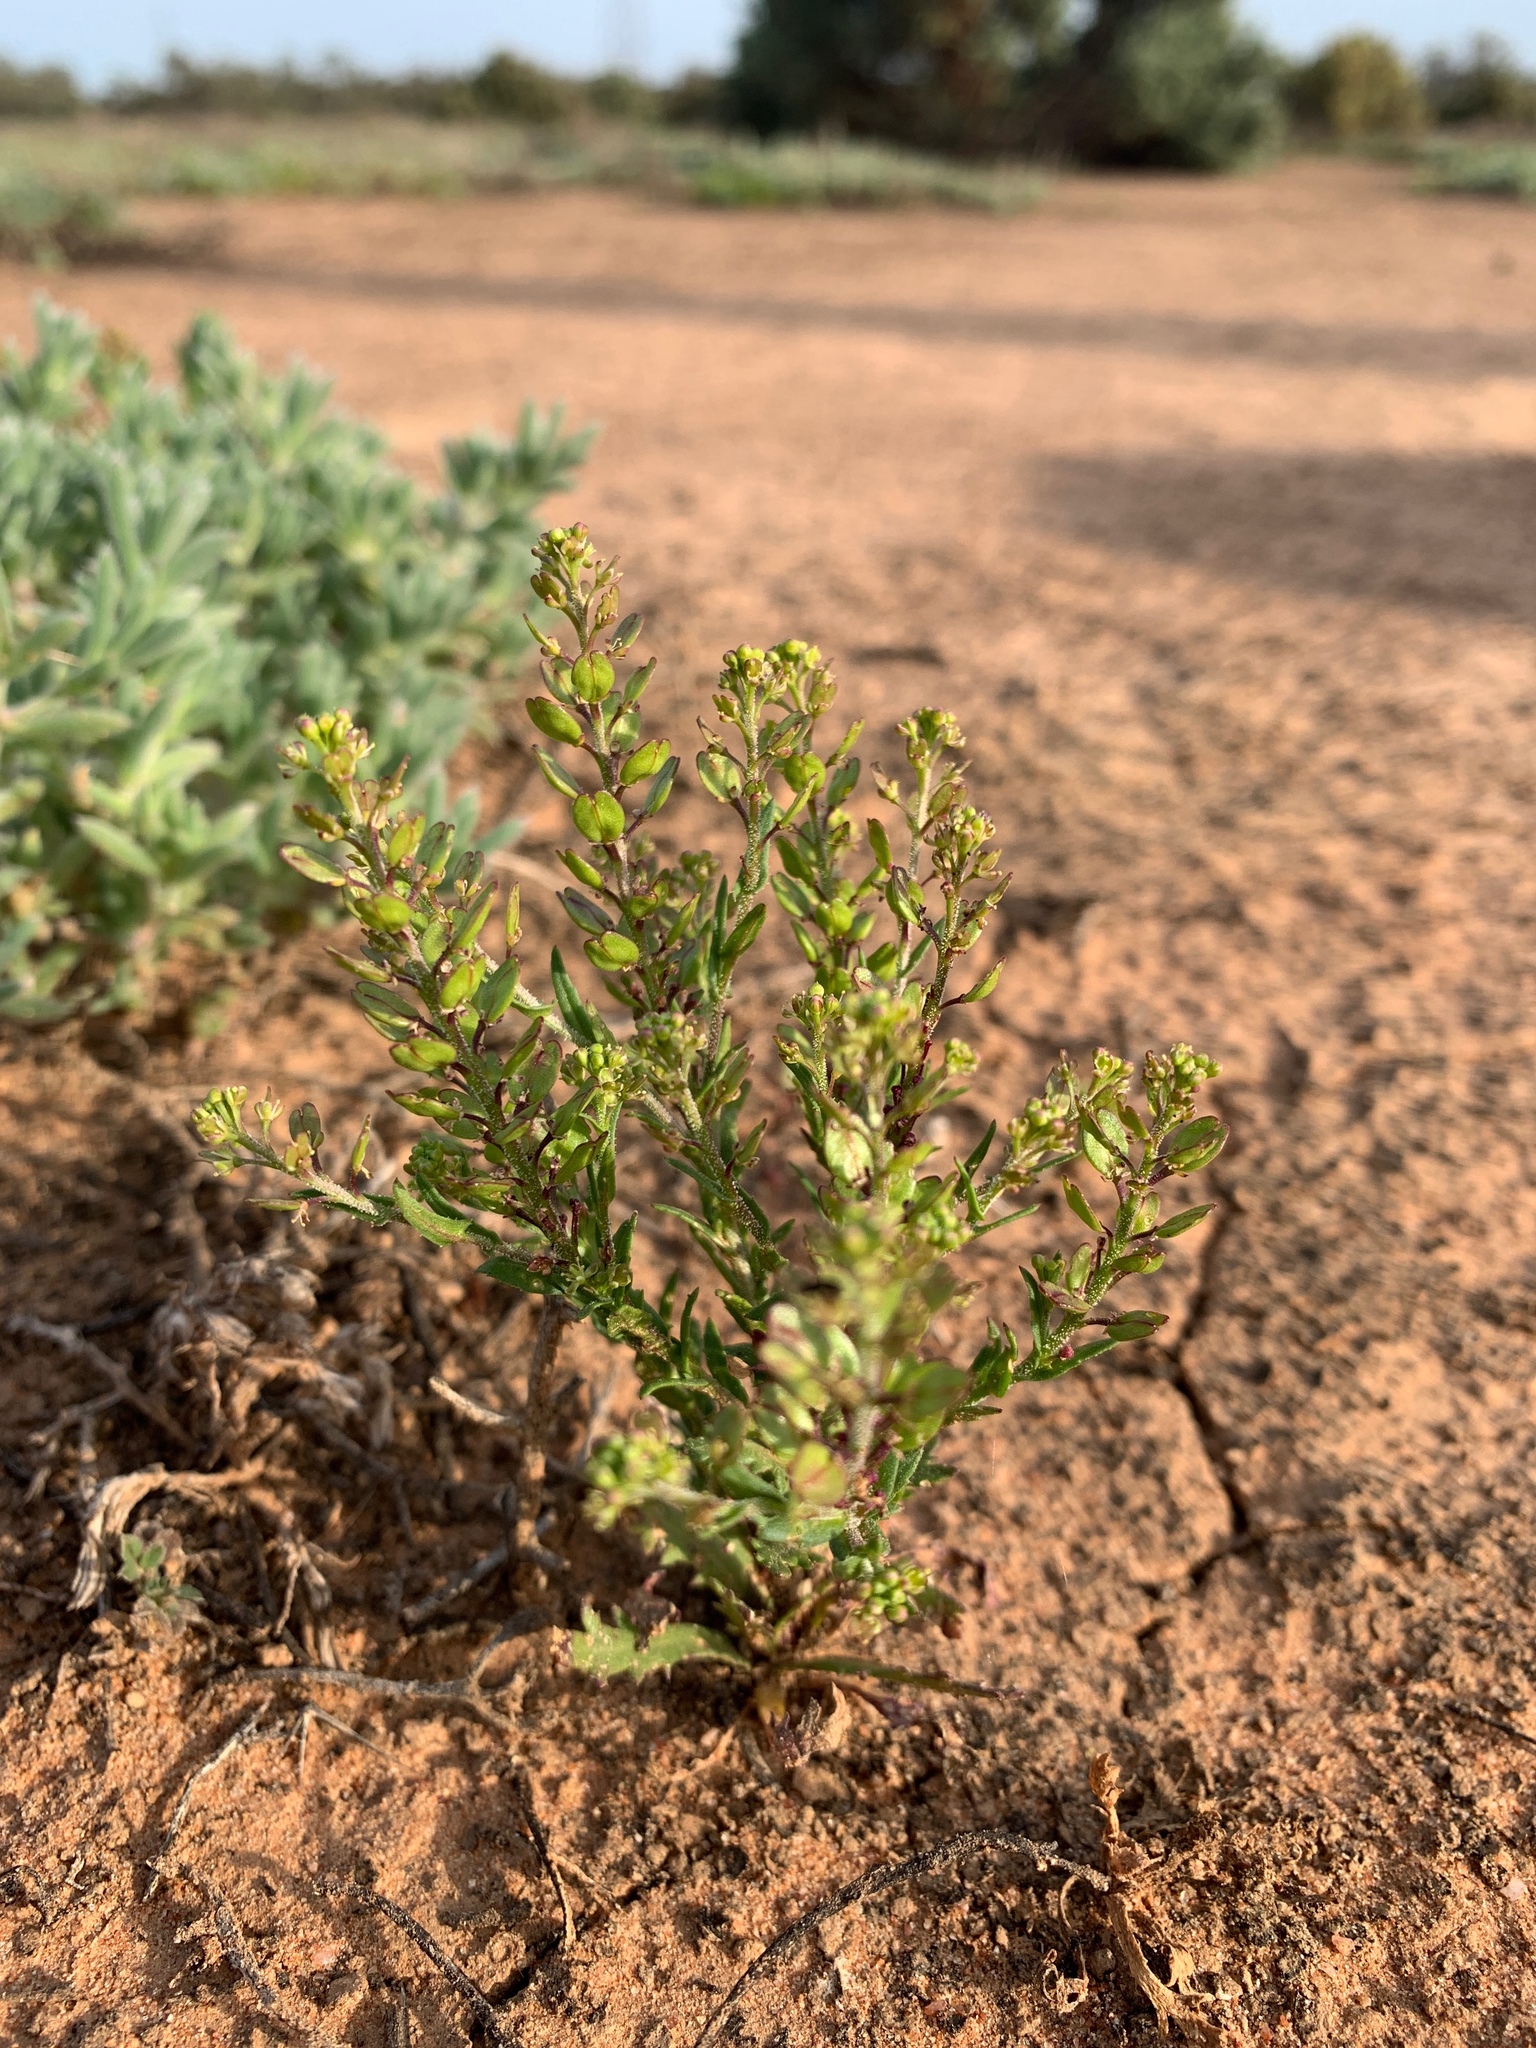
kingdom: Plantae
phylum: Tracheophyta
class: Magnoliopsida
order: Brassicales
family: Brassicaceae
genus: Lepidium
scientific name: Lepidium papillosum
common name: Warty pepperwort
